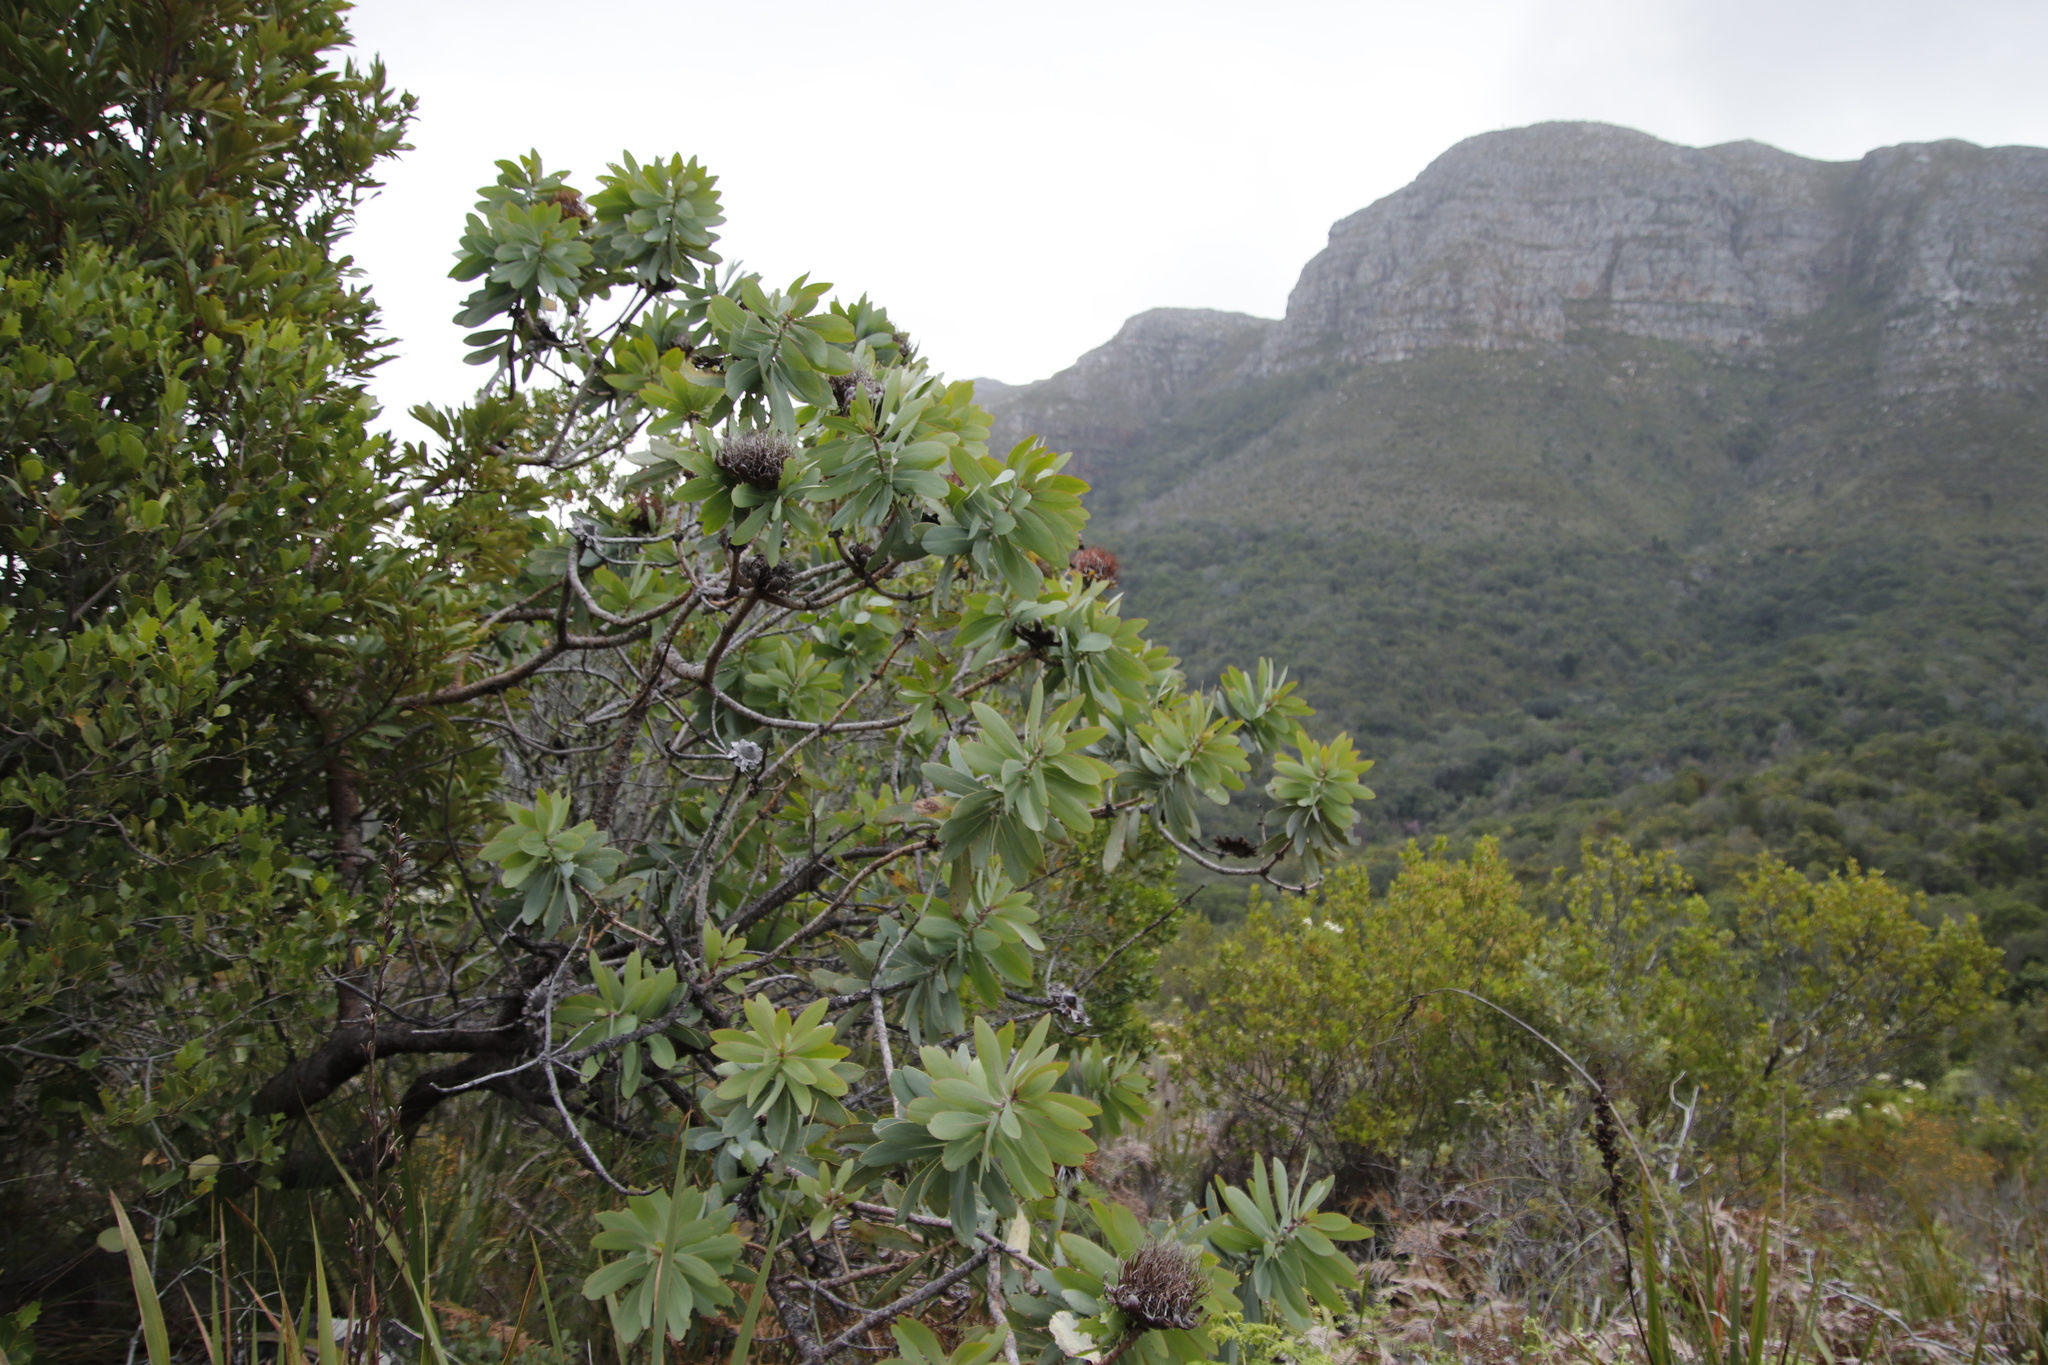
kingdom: Plantae
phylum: Tracheophyta
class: Magnoliopsida
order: Proteales
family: Proteaceae
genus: Protea
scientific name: Protea nitida
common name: Tree protea
